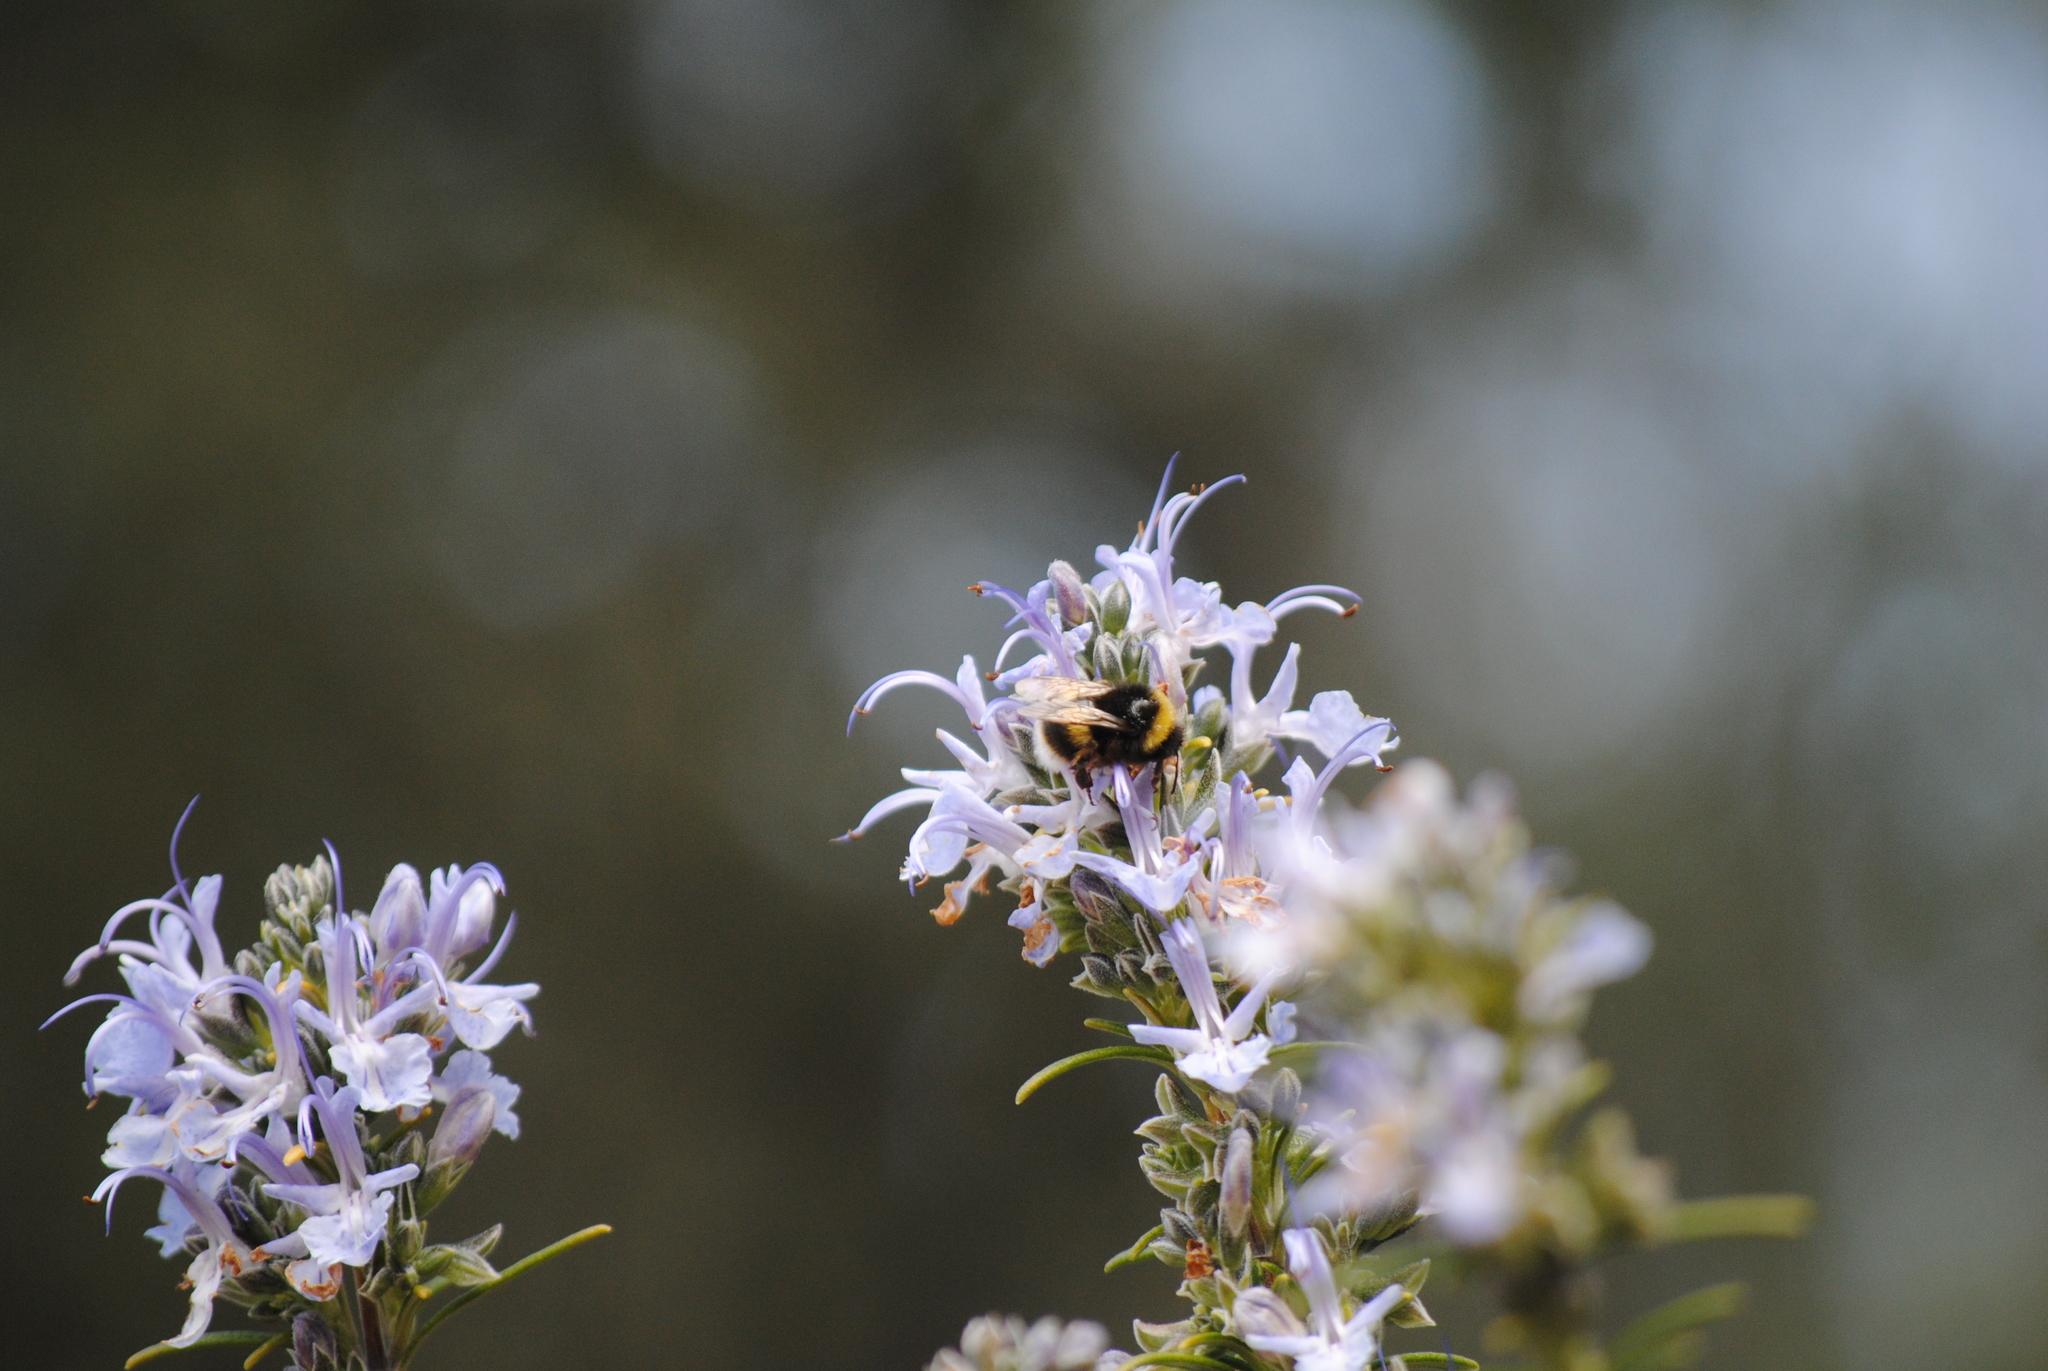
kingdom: Plantae
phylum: Tracheophyta
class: Magnoliopsida
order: Lamiales
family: Lamiaceae
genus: Salvia
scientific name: Salvia rosmarinus
